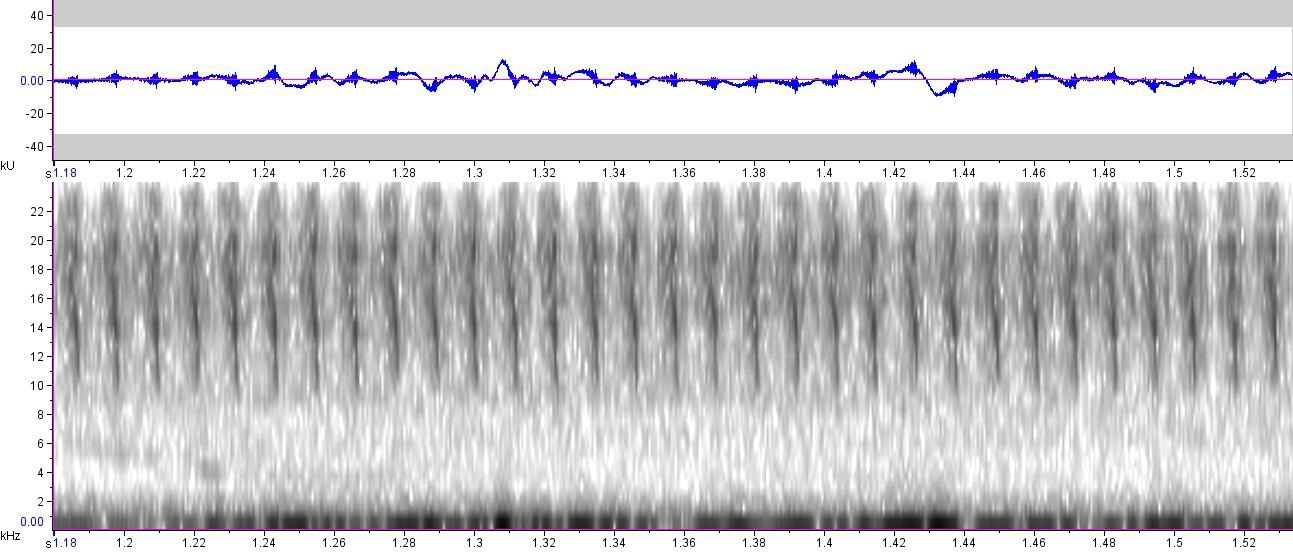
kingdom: Animalia
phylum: Arthropoda
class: Insecta
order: Orthoptera
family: Tettigoniidae
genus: Ruspolia
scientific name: Ruspolia nitidula
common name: Large conehead
